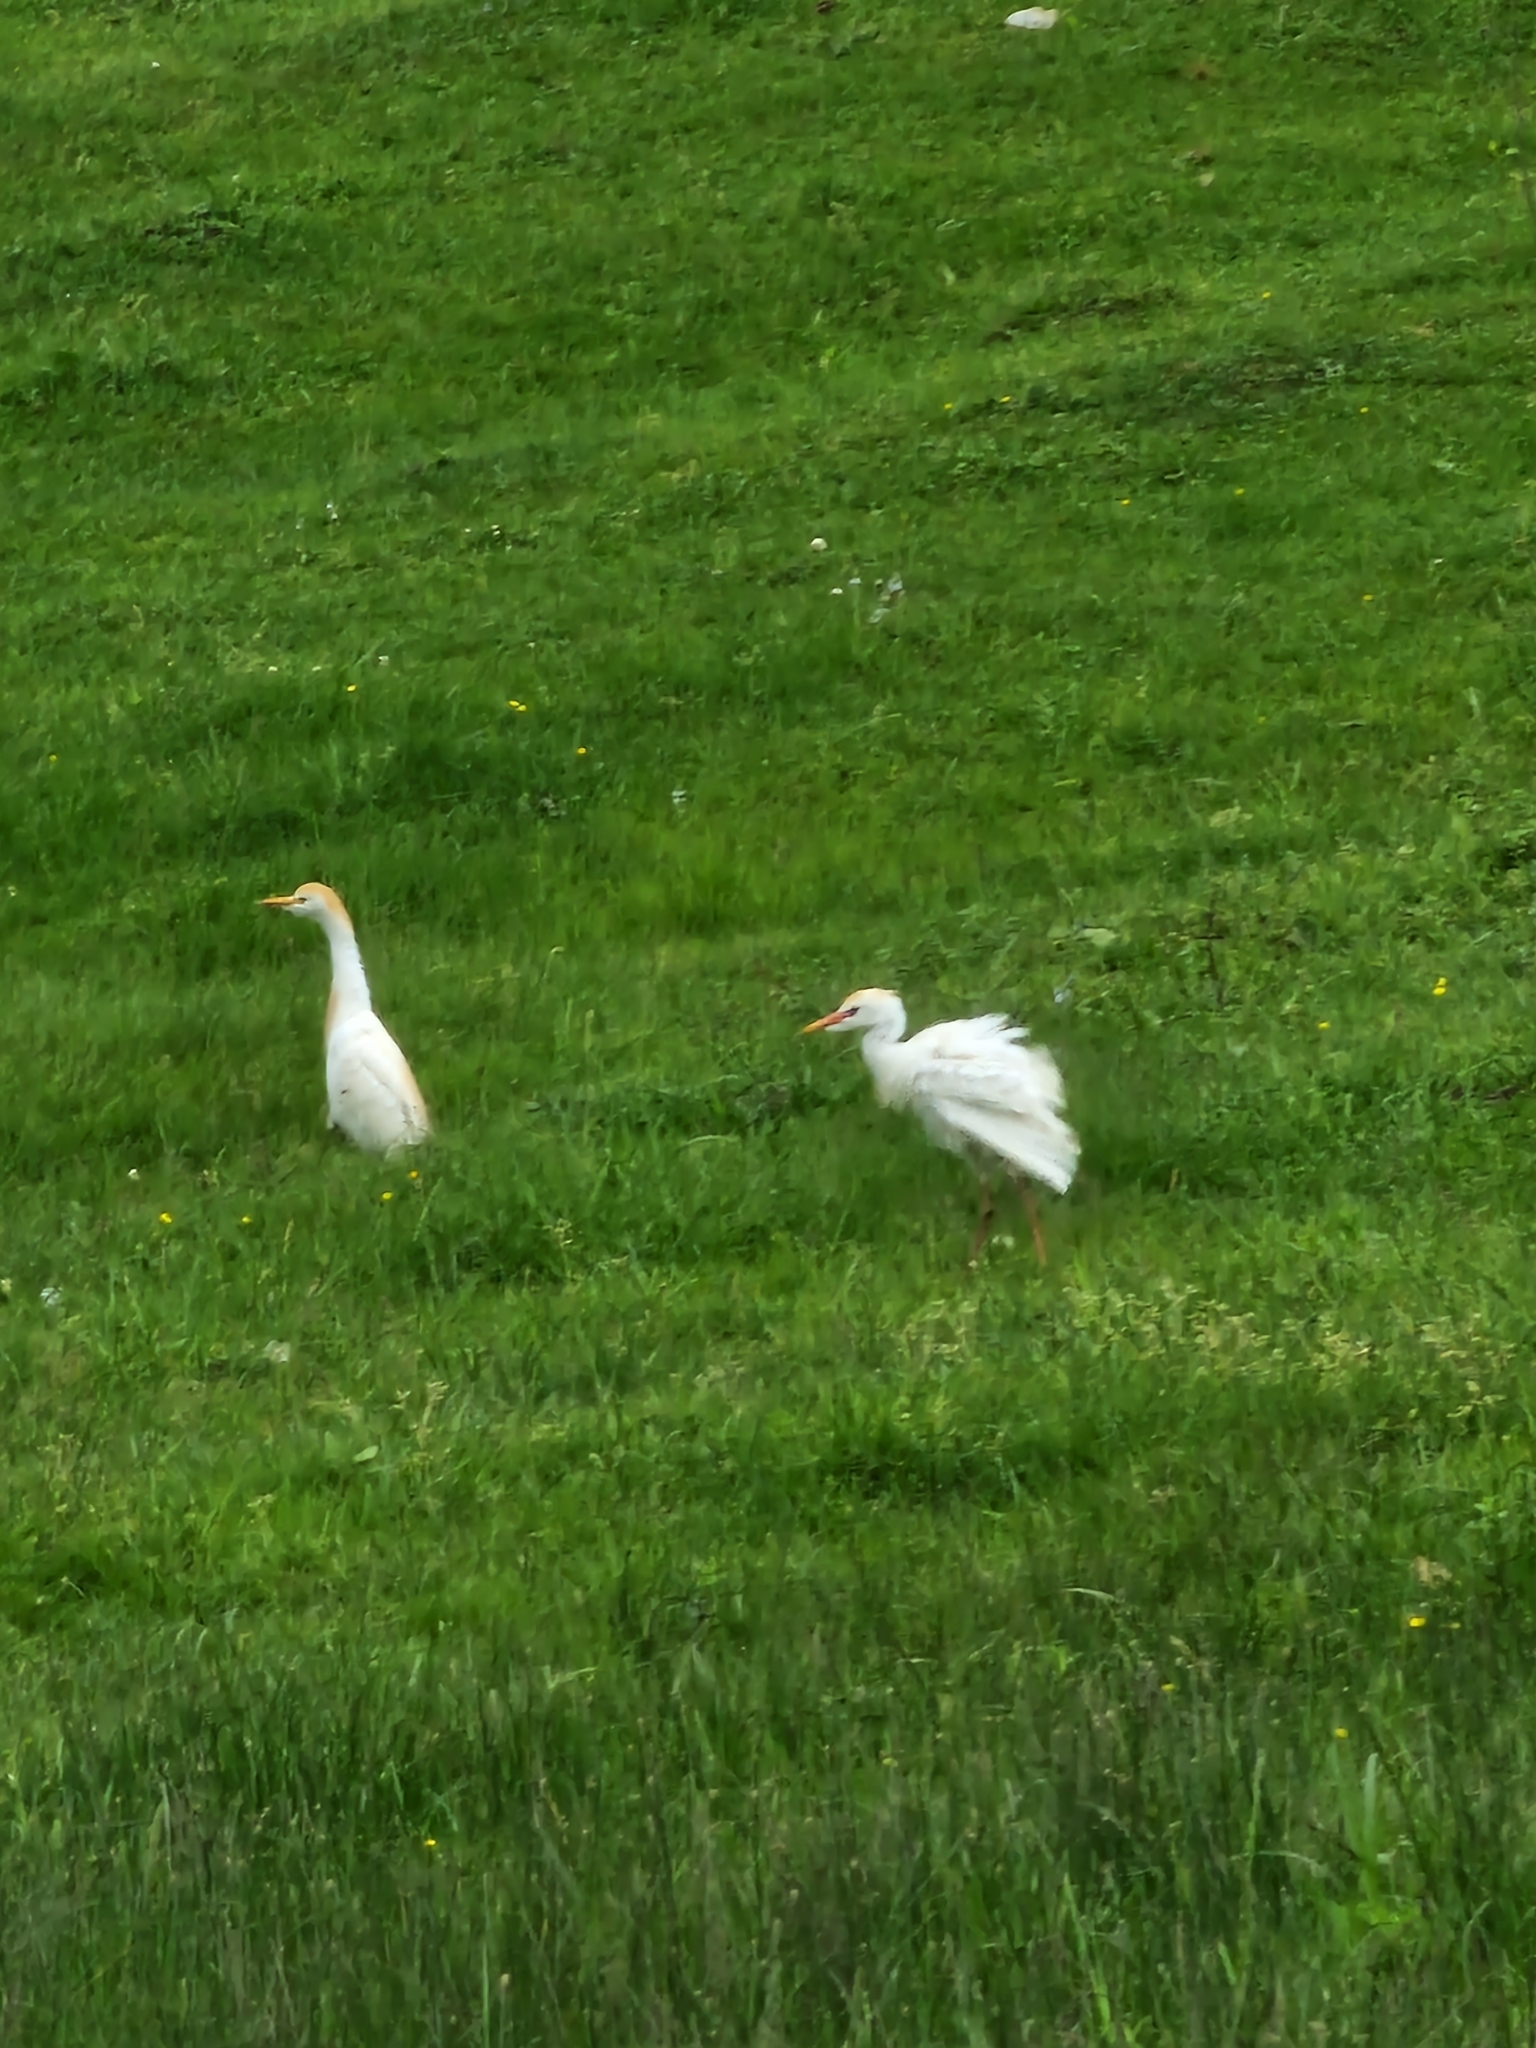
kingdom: Animalia
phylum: Chordata
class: Aves
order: Pelecaniformes
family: Ardeidae
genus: Bubulcus
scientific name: Bubulcus ibis
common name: Cattle egret
